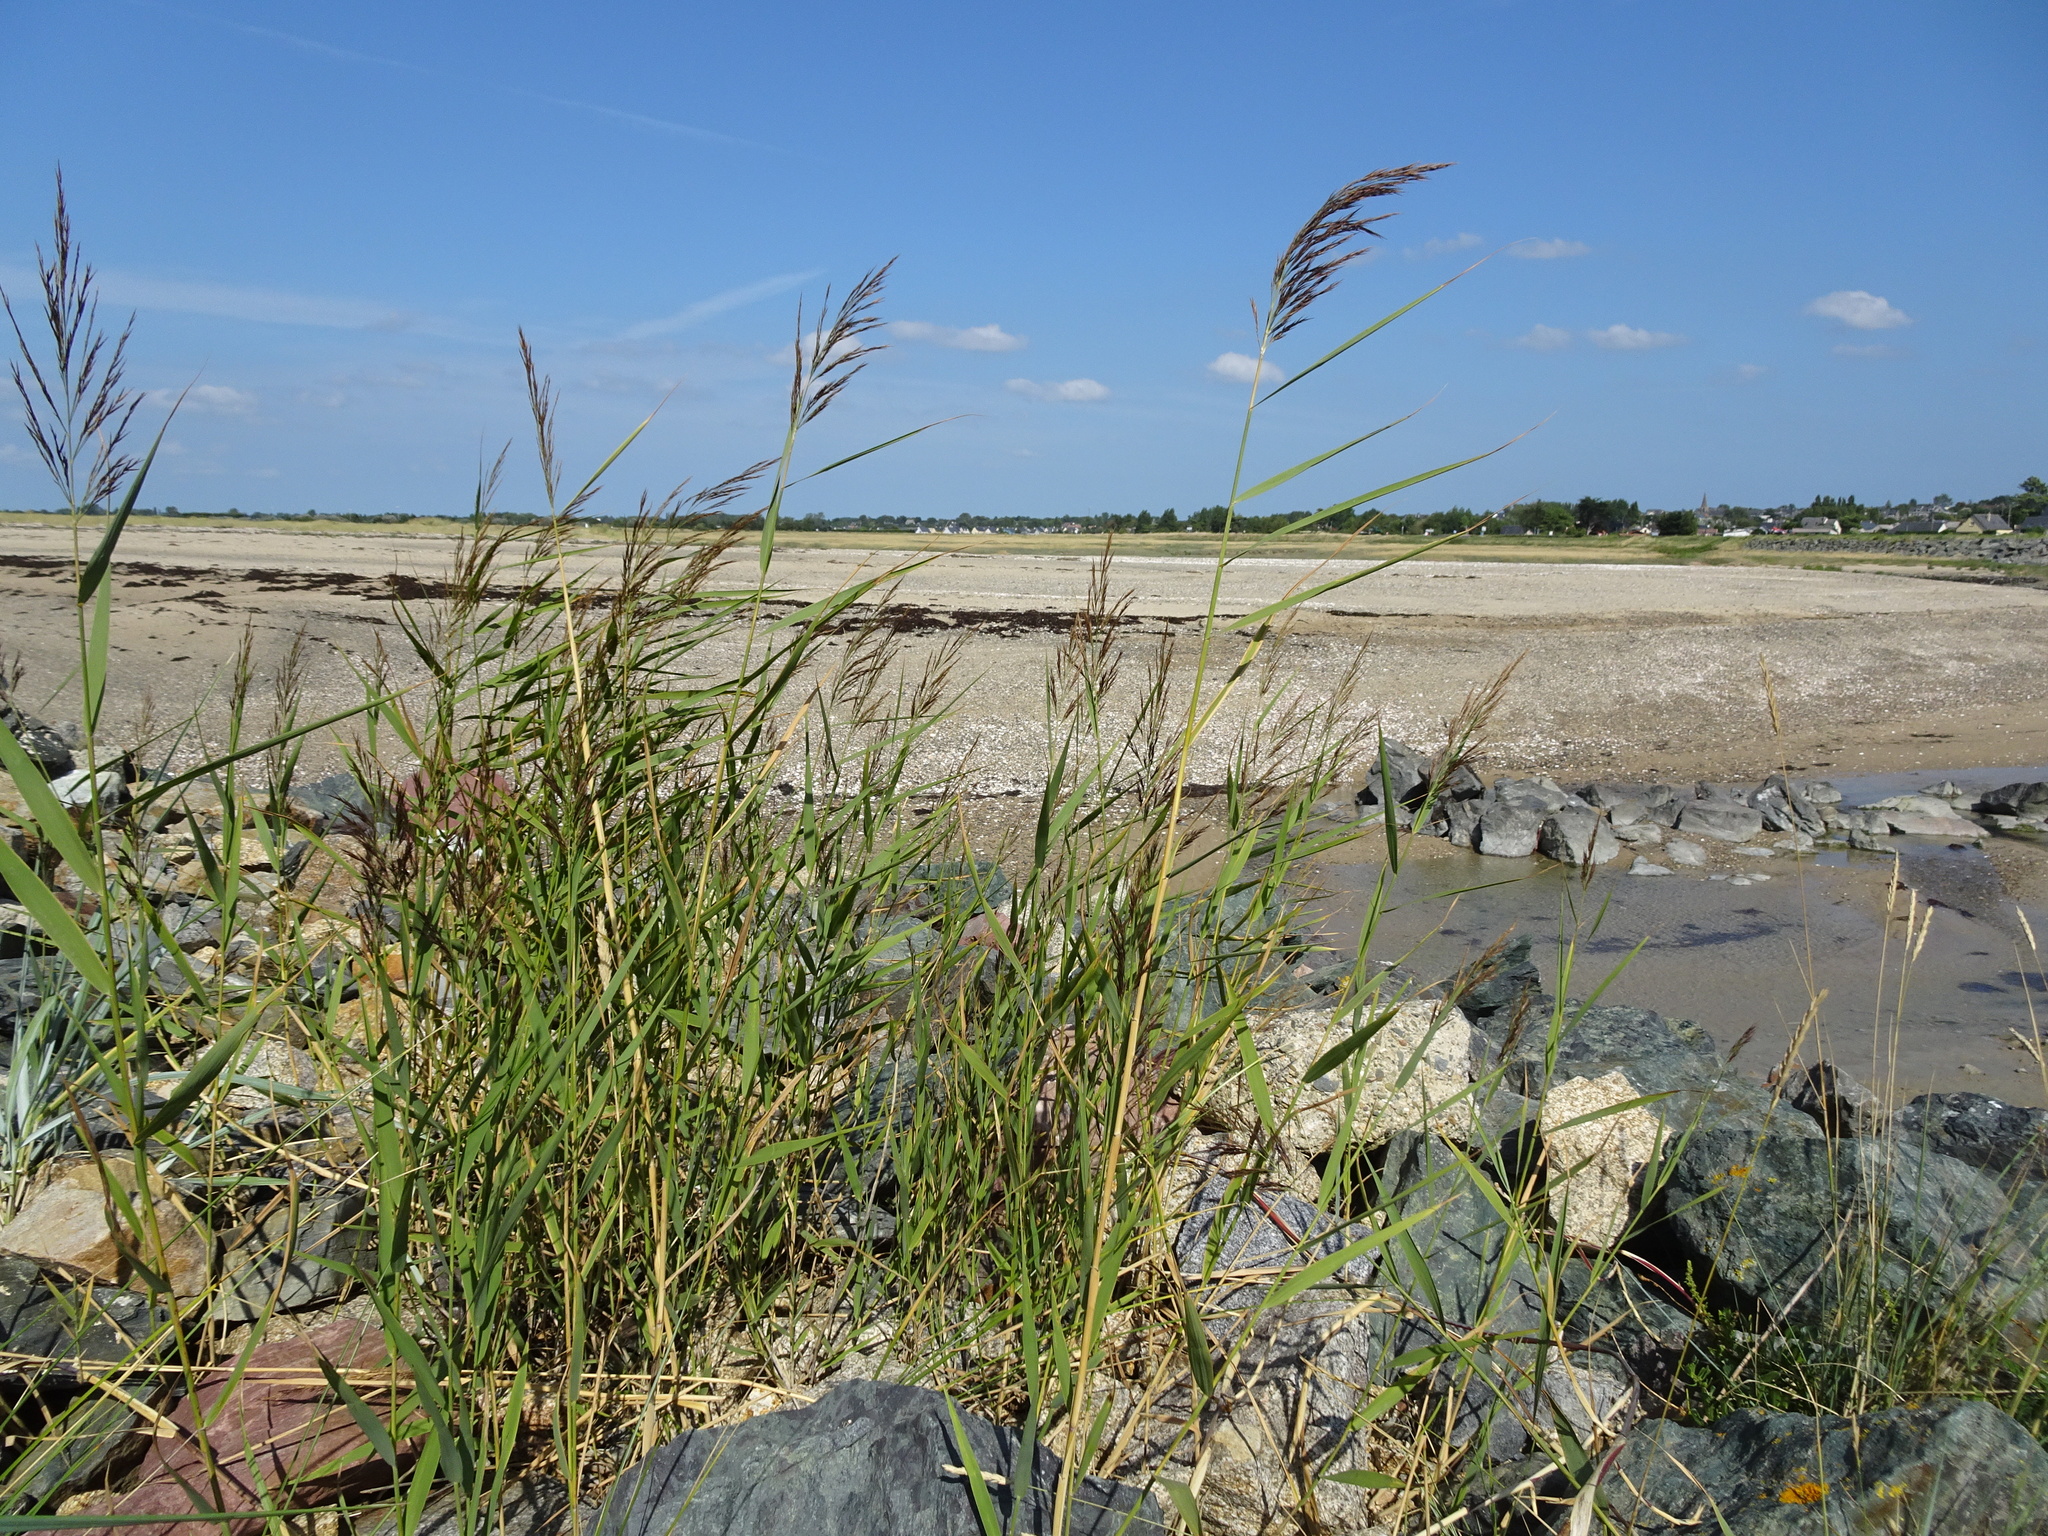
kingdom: Plantae
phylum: Tracheophyta
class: Liliopsida
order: Poales
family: Poaceae
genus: Phragmites
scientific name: Phragmites australis
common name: Common reed
